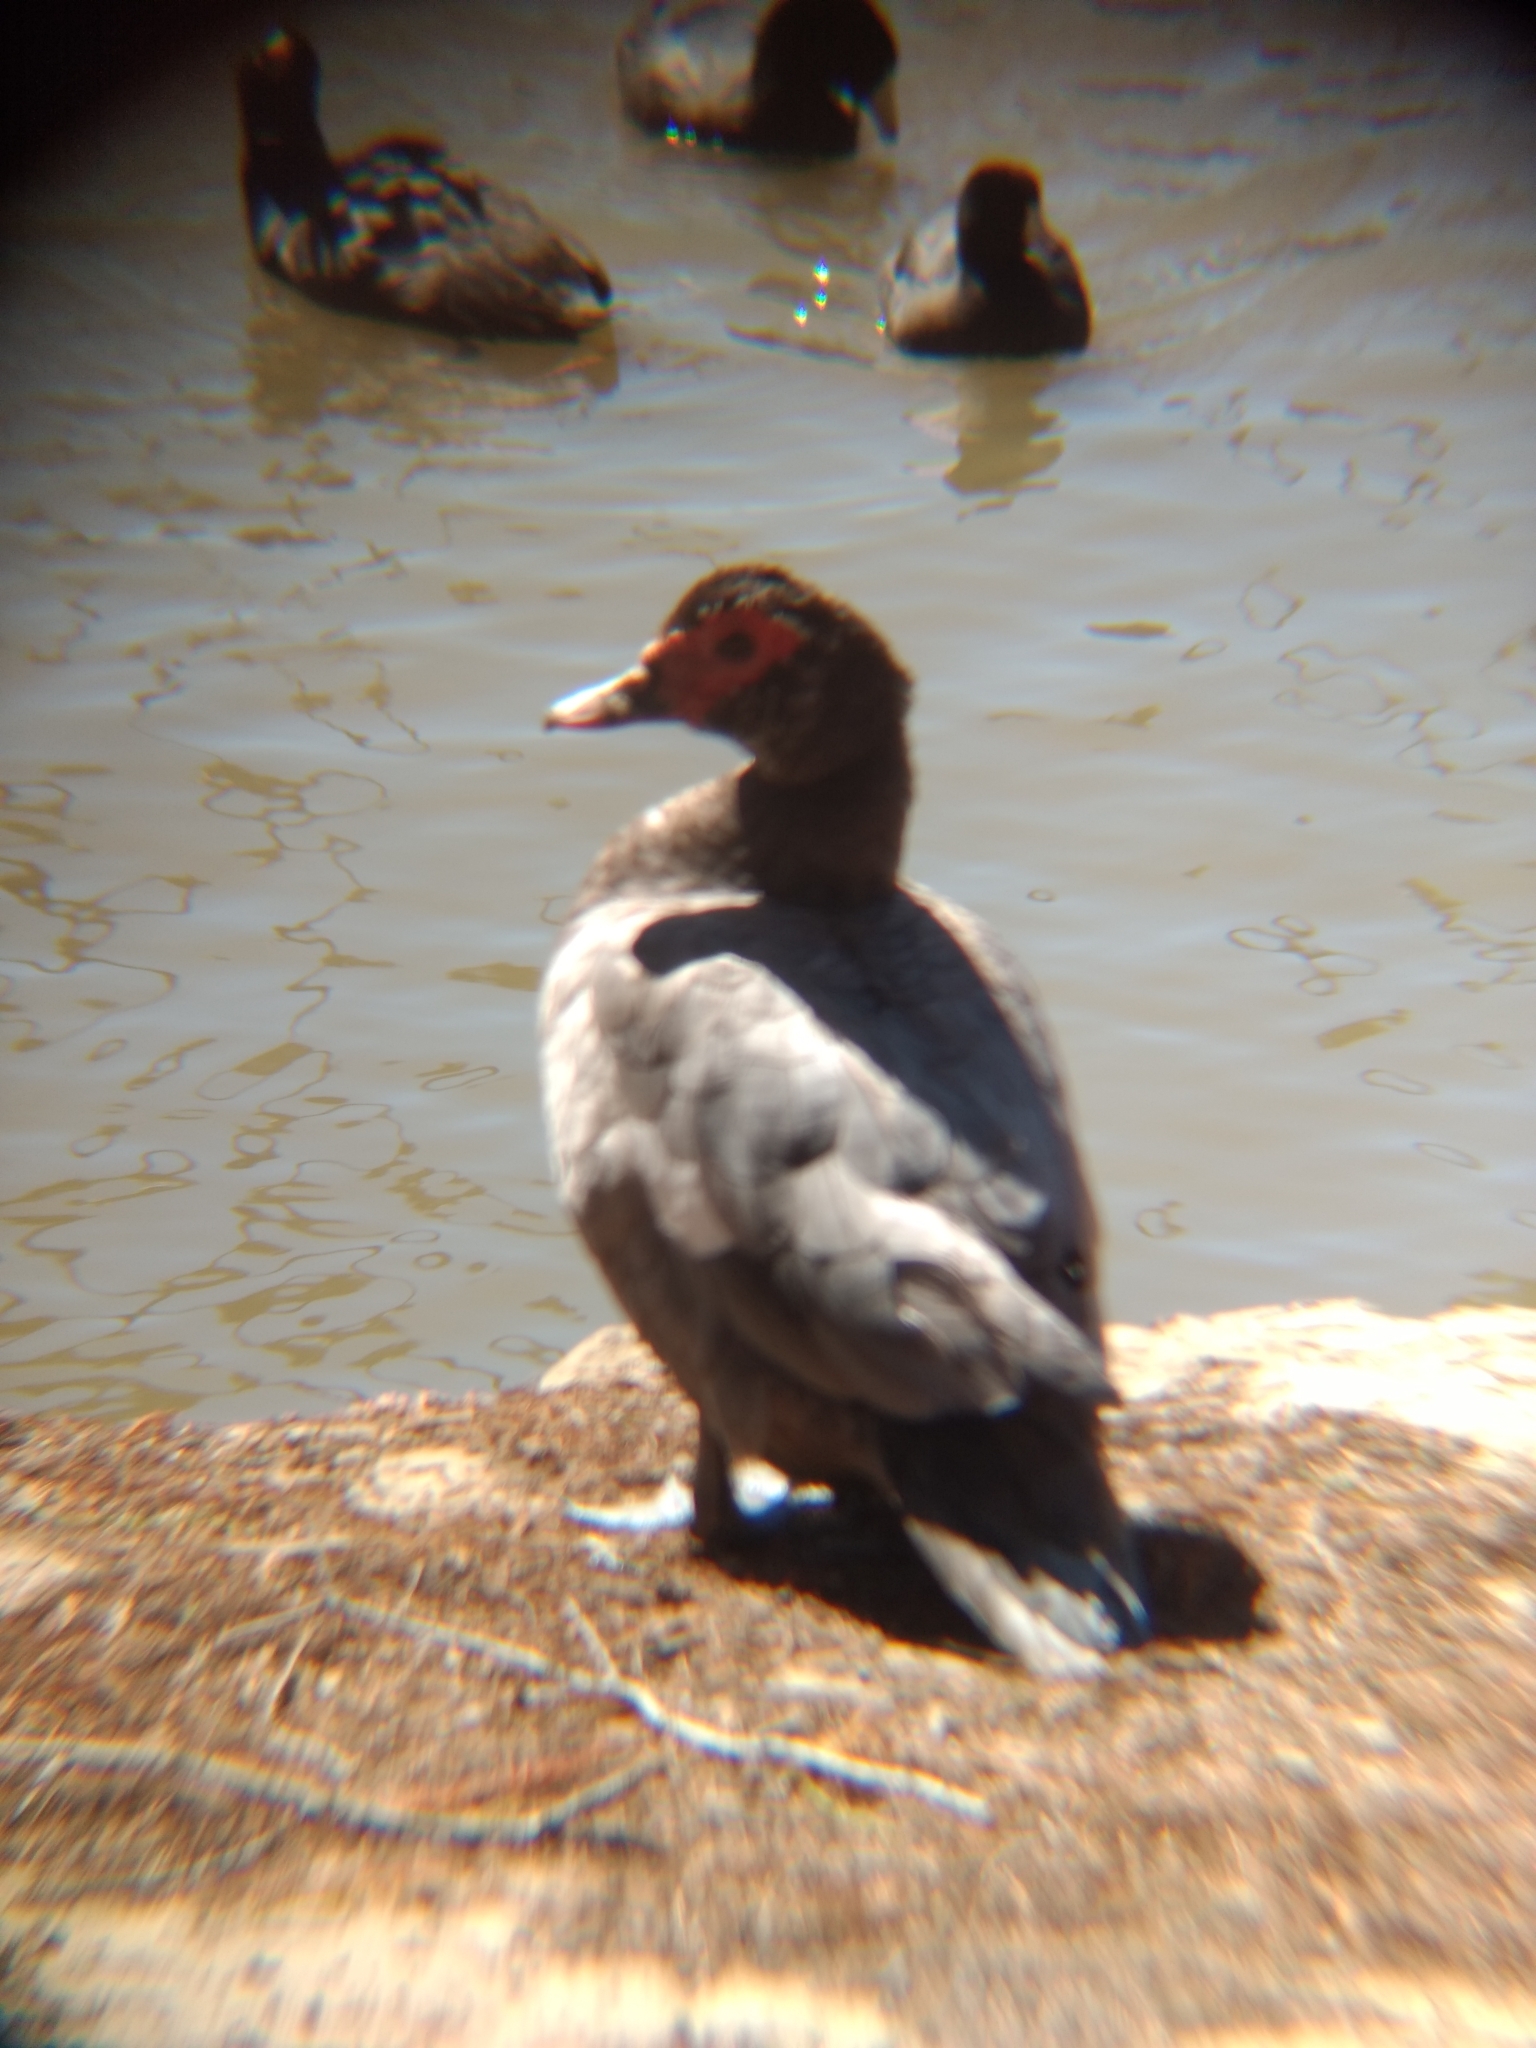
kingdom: Animalia
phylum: Chordata
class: Aves
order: Anseriformes
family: Anatidae
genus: Cairina
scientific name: Cairina moschata
